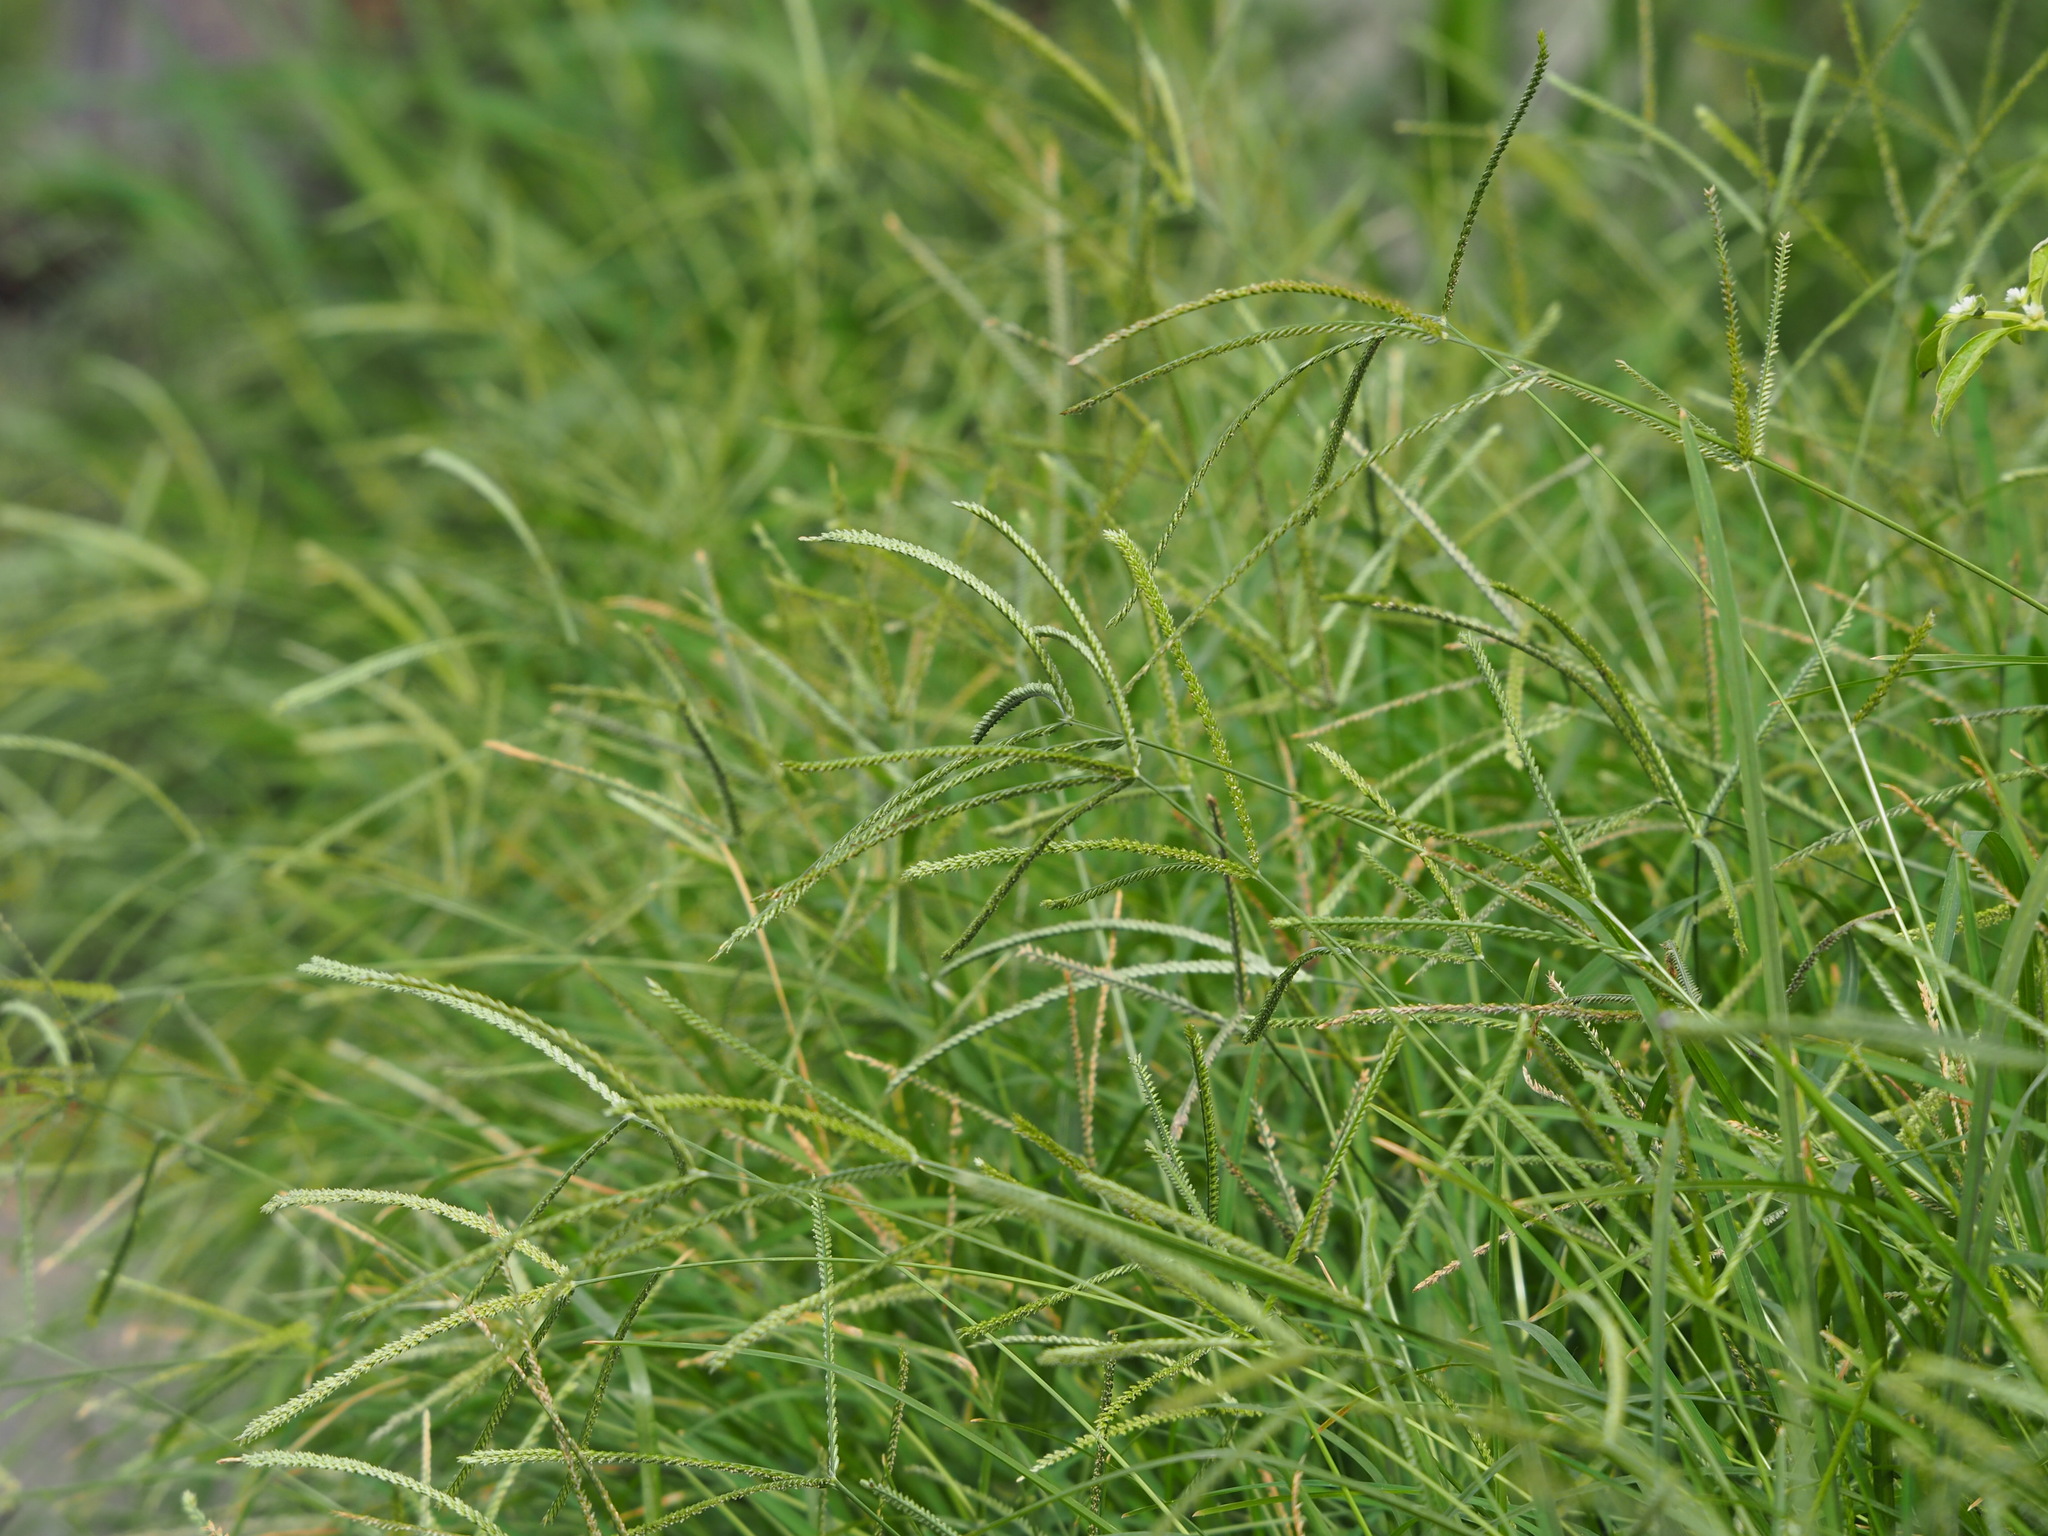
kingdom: Plantae
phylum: Tracheophyta
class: Liliopsida
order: Poales
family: Poaceae
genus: Eleusine
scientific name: Eleusine indica
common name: Yard-grass
